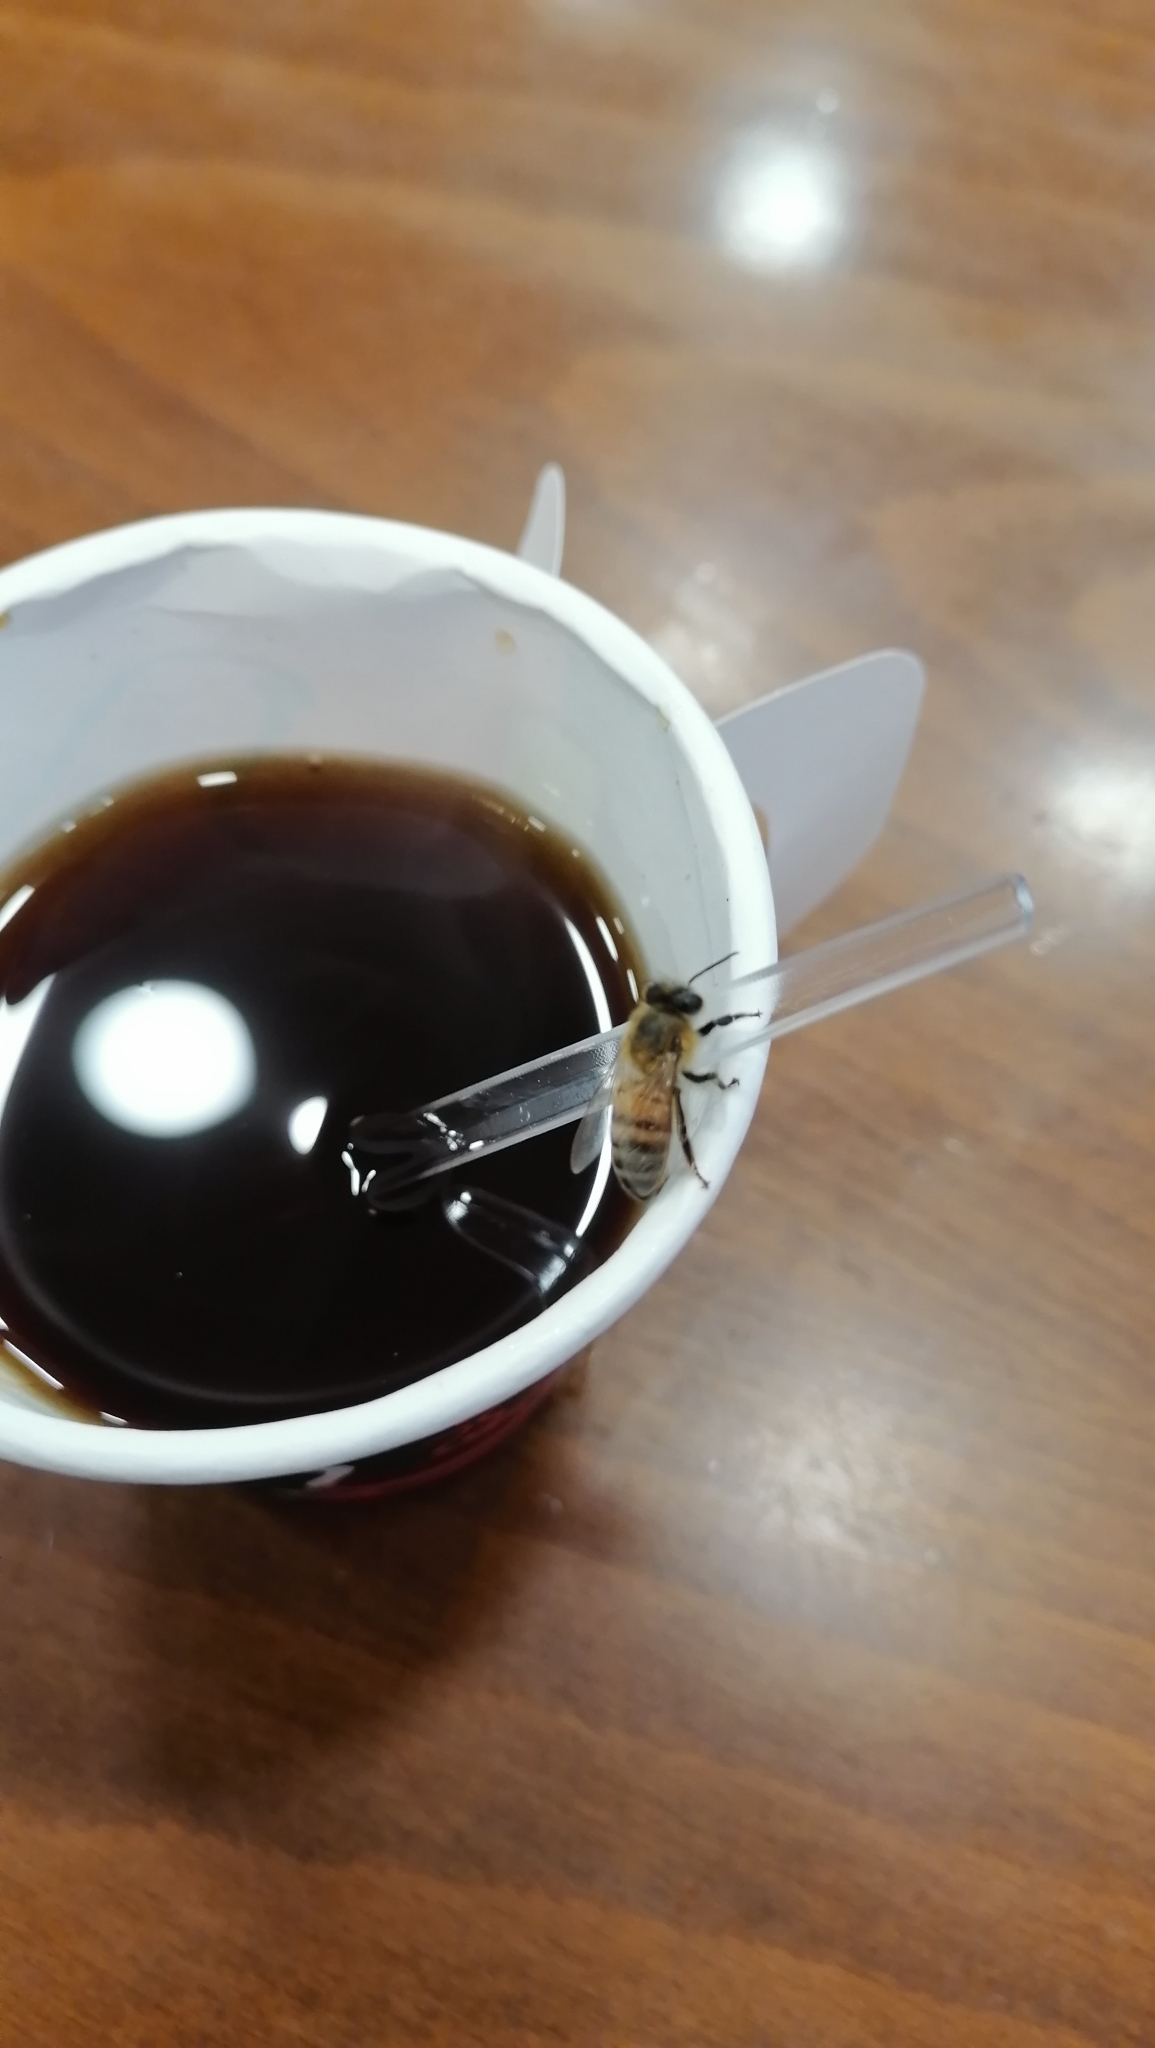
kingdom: Animalia
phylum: Arthropoda
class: Insecta
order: Hymenoptera
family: Apidae
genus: Apis
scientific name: Apis mellifera
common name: Honey bee
